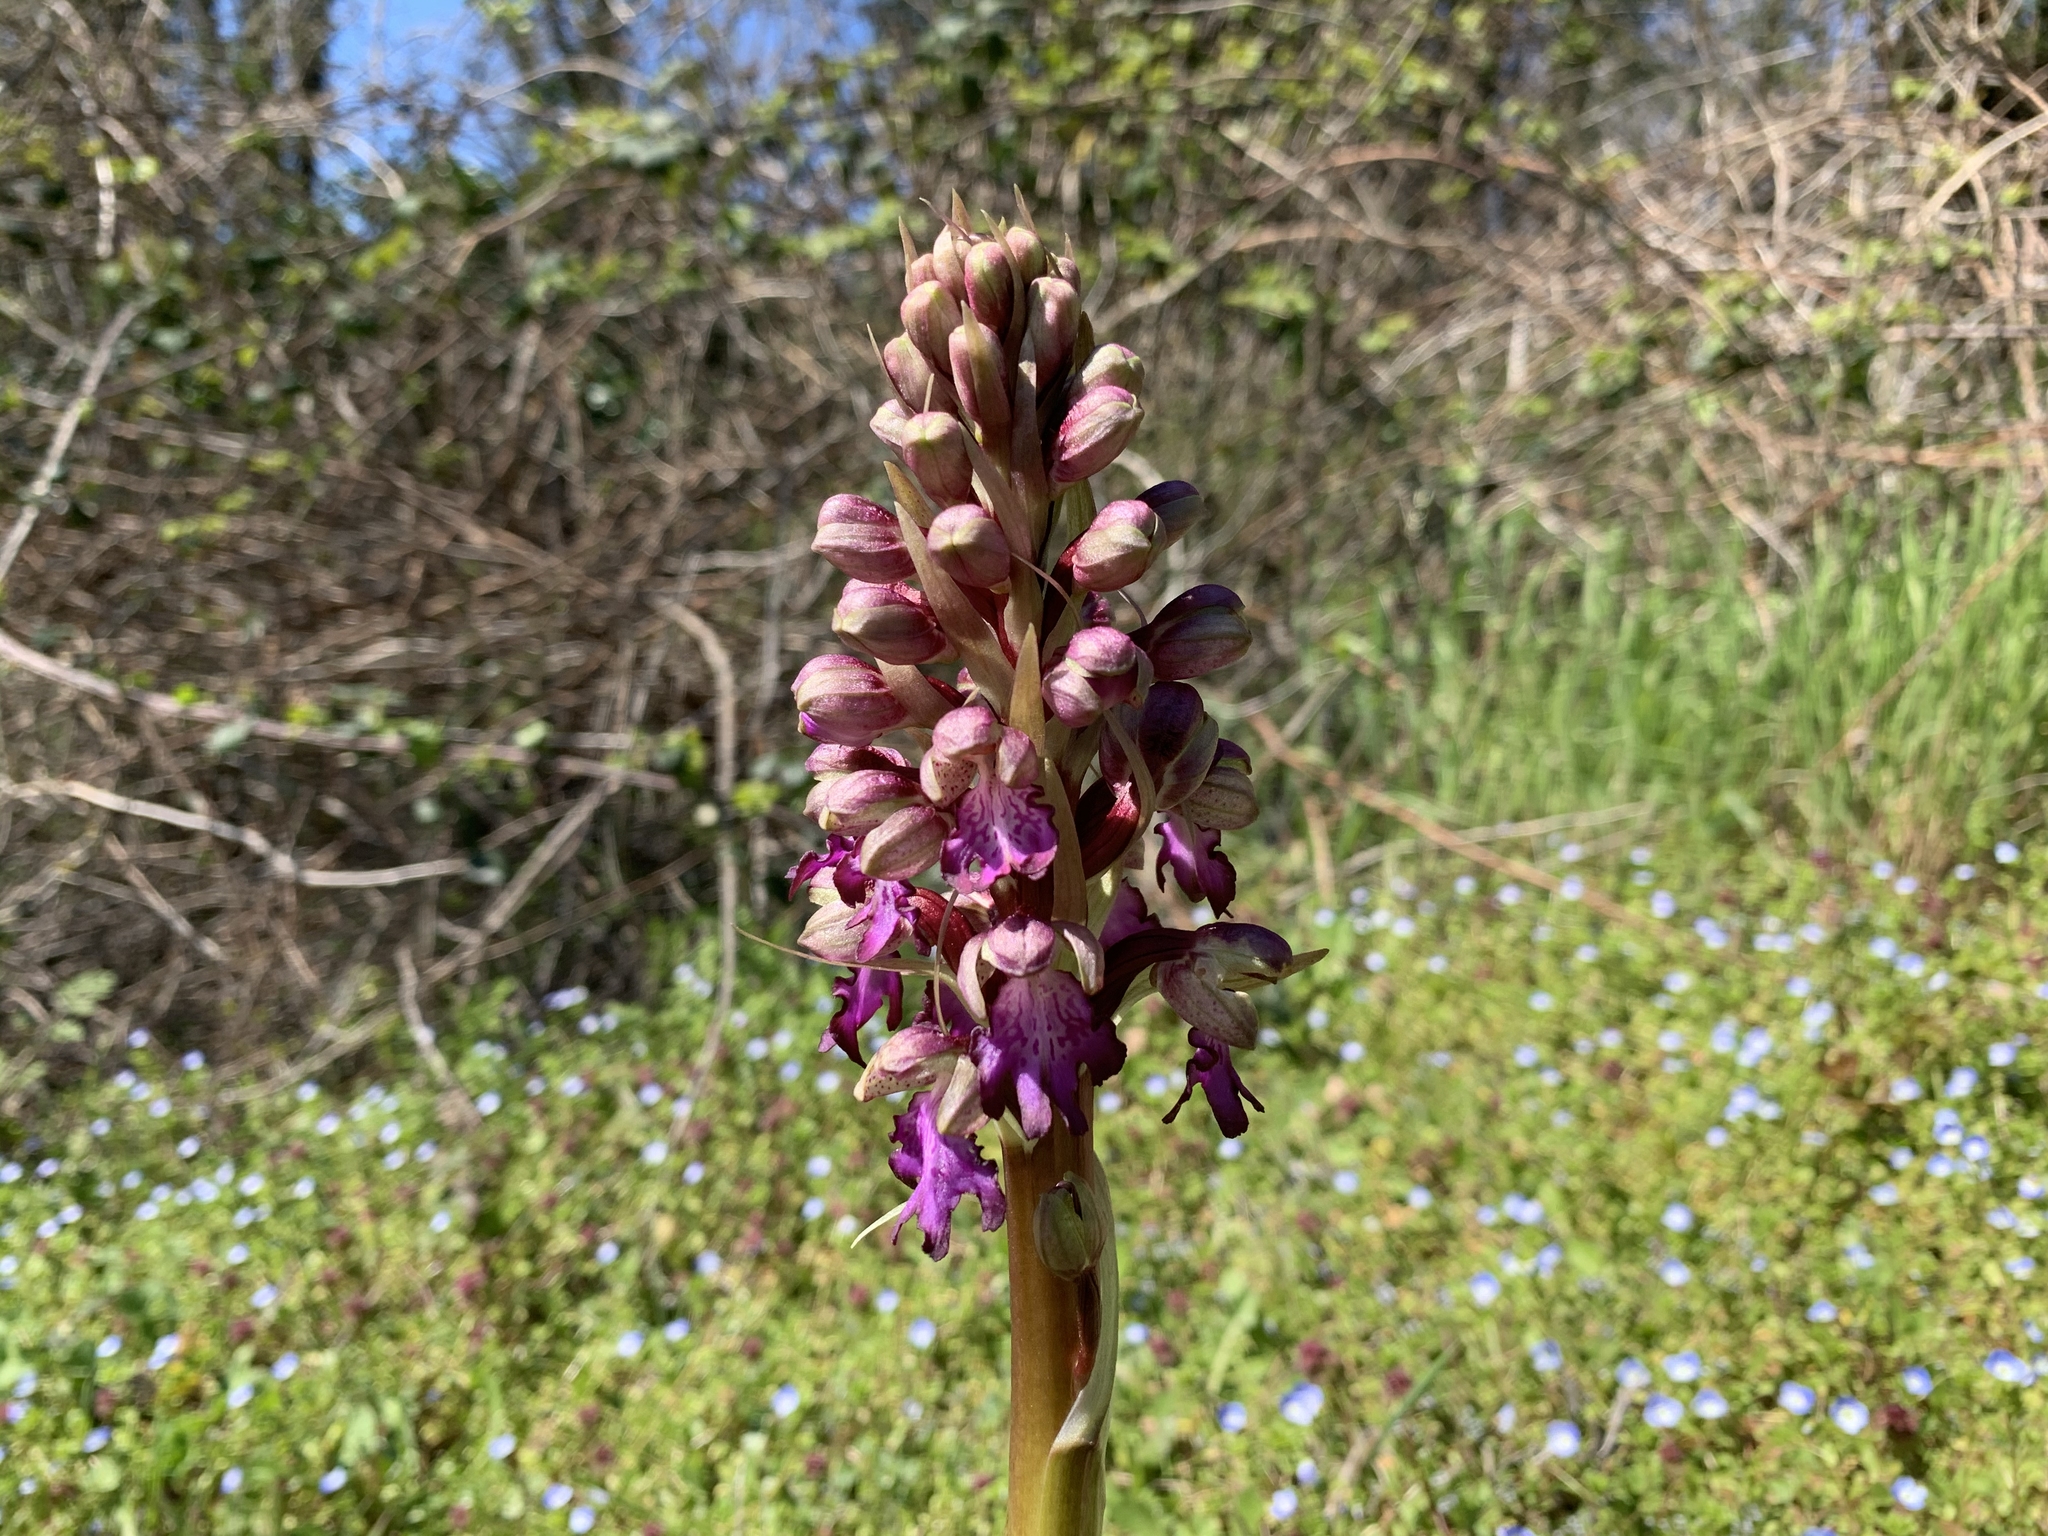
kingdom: Plantae
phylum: Tracheophyta
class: Liliopsida
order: Asparagales
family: Orchidaceae
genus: Himantoglossum
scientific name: Himantoglossum robertianum
